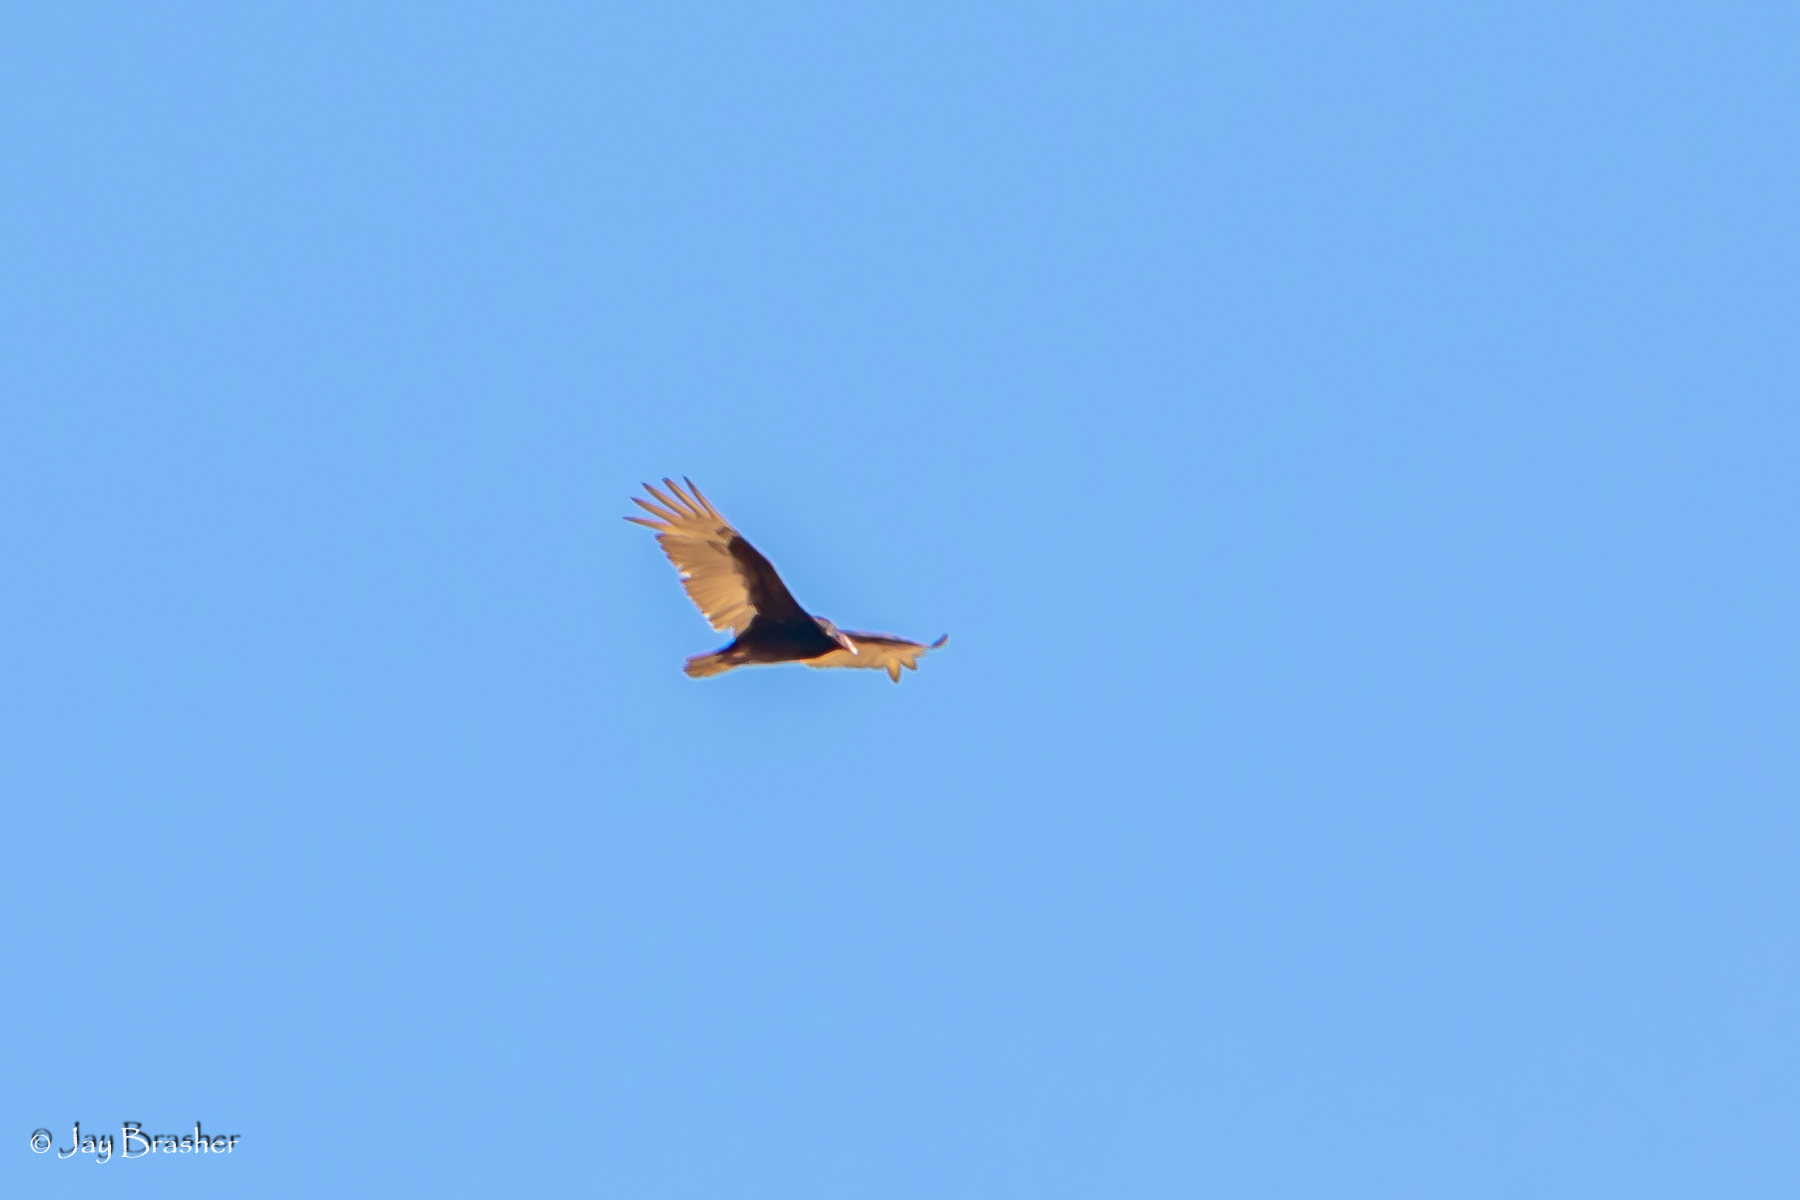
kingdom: Animalia
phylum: Chordata
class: Aves
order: Accipitriformes
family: Cathartidae
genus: Cathartes
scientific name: Cathartes aura
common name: Turkey vulture
